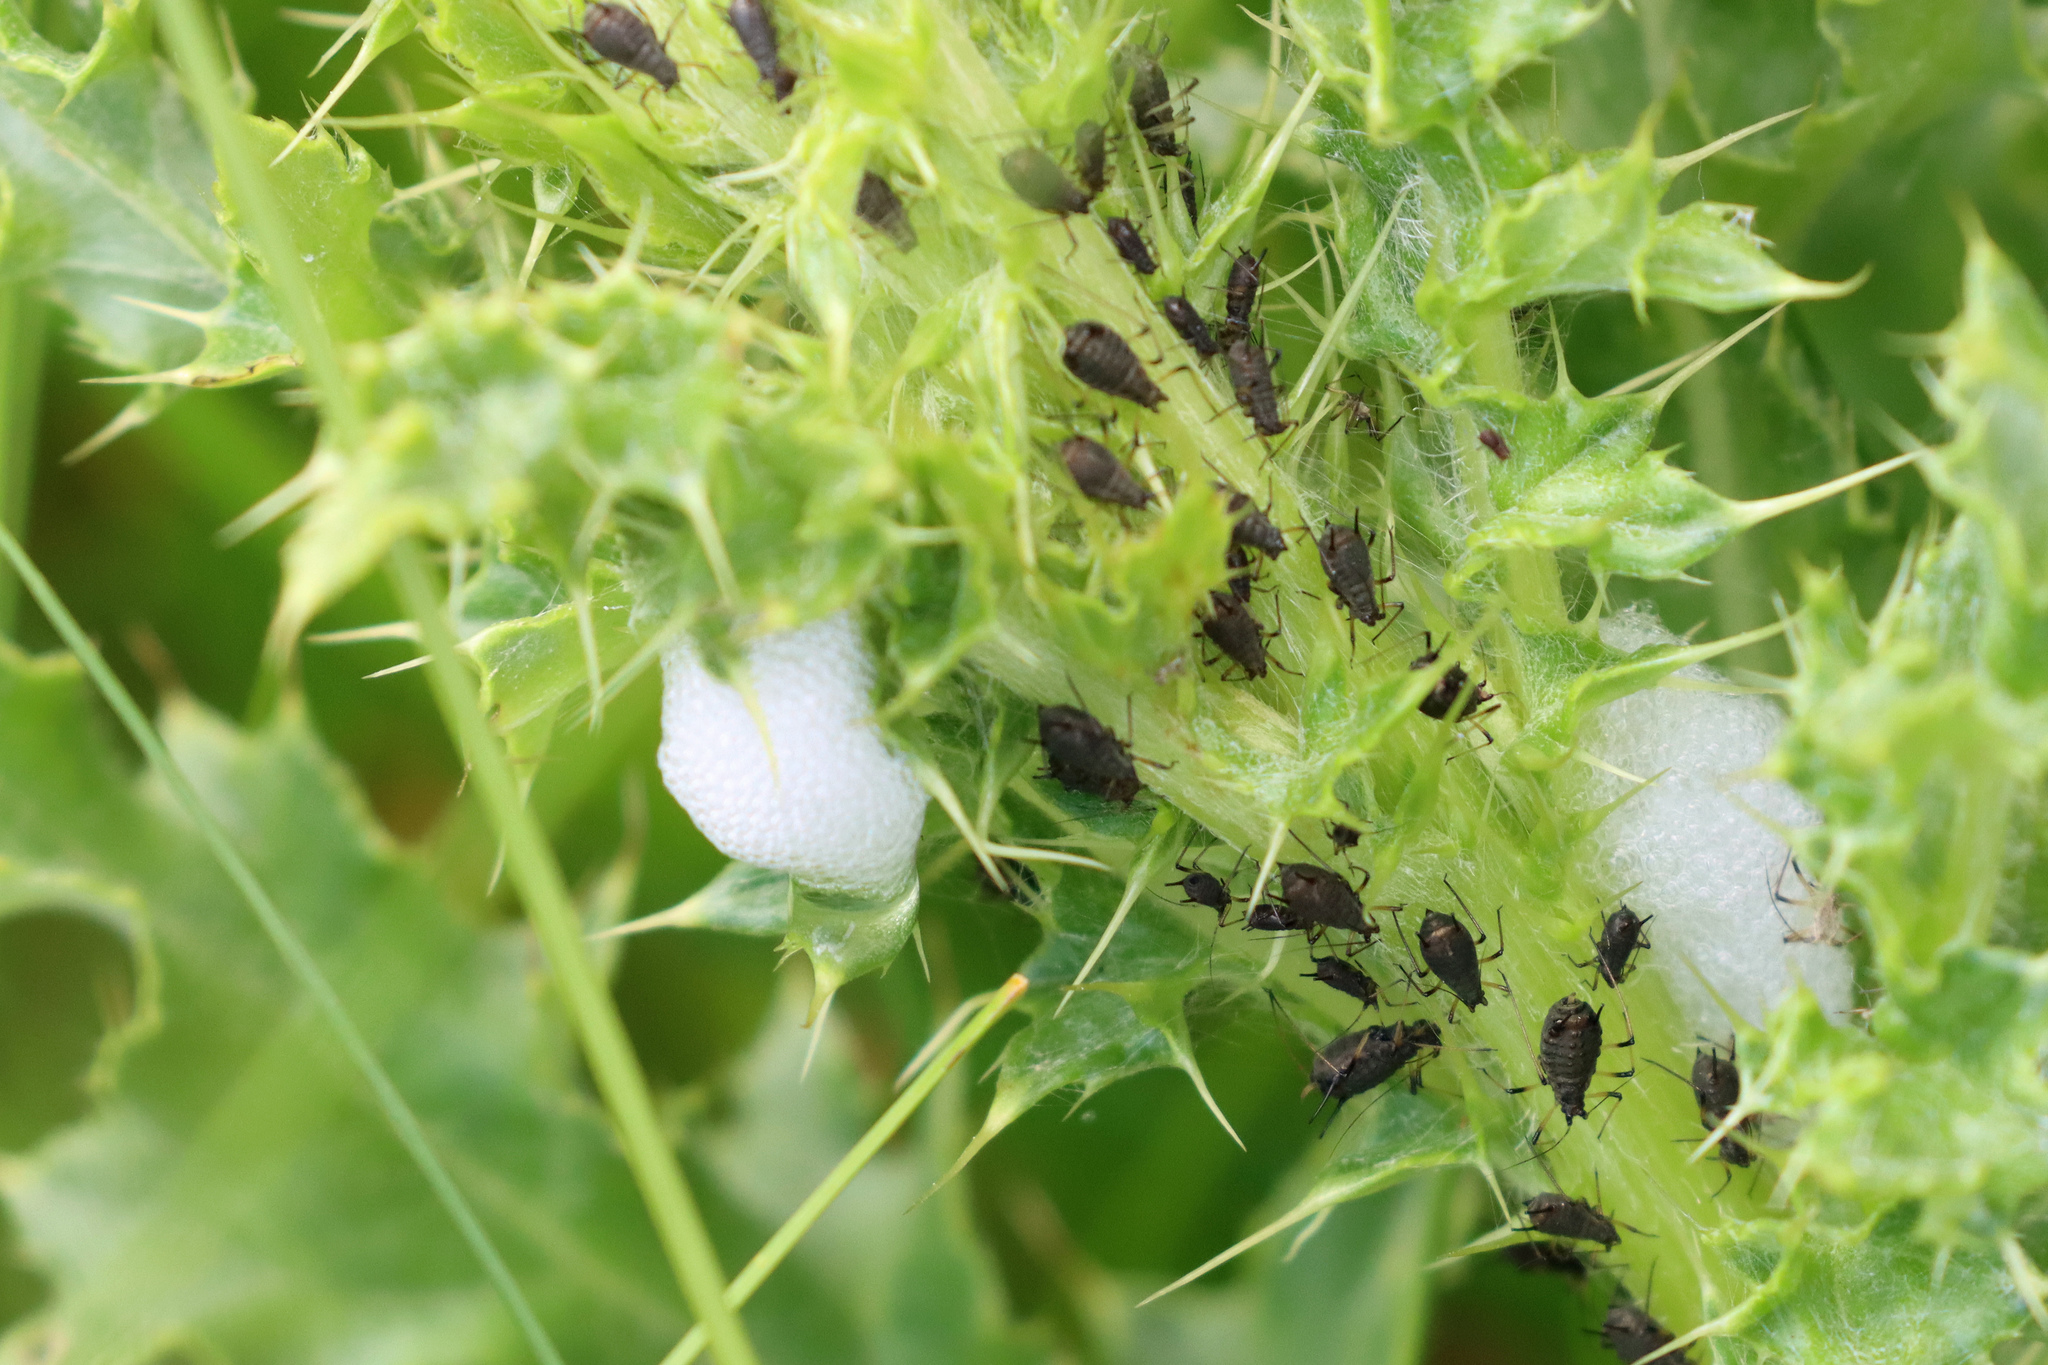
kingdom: Animalia
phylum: Arthropoda
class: Insecta
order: Hemiptera
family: Aphididae
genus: Uroleucon
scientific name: Uroleucon cirsii
